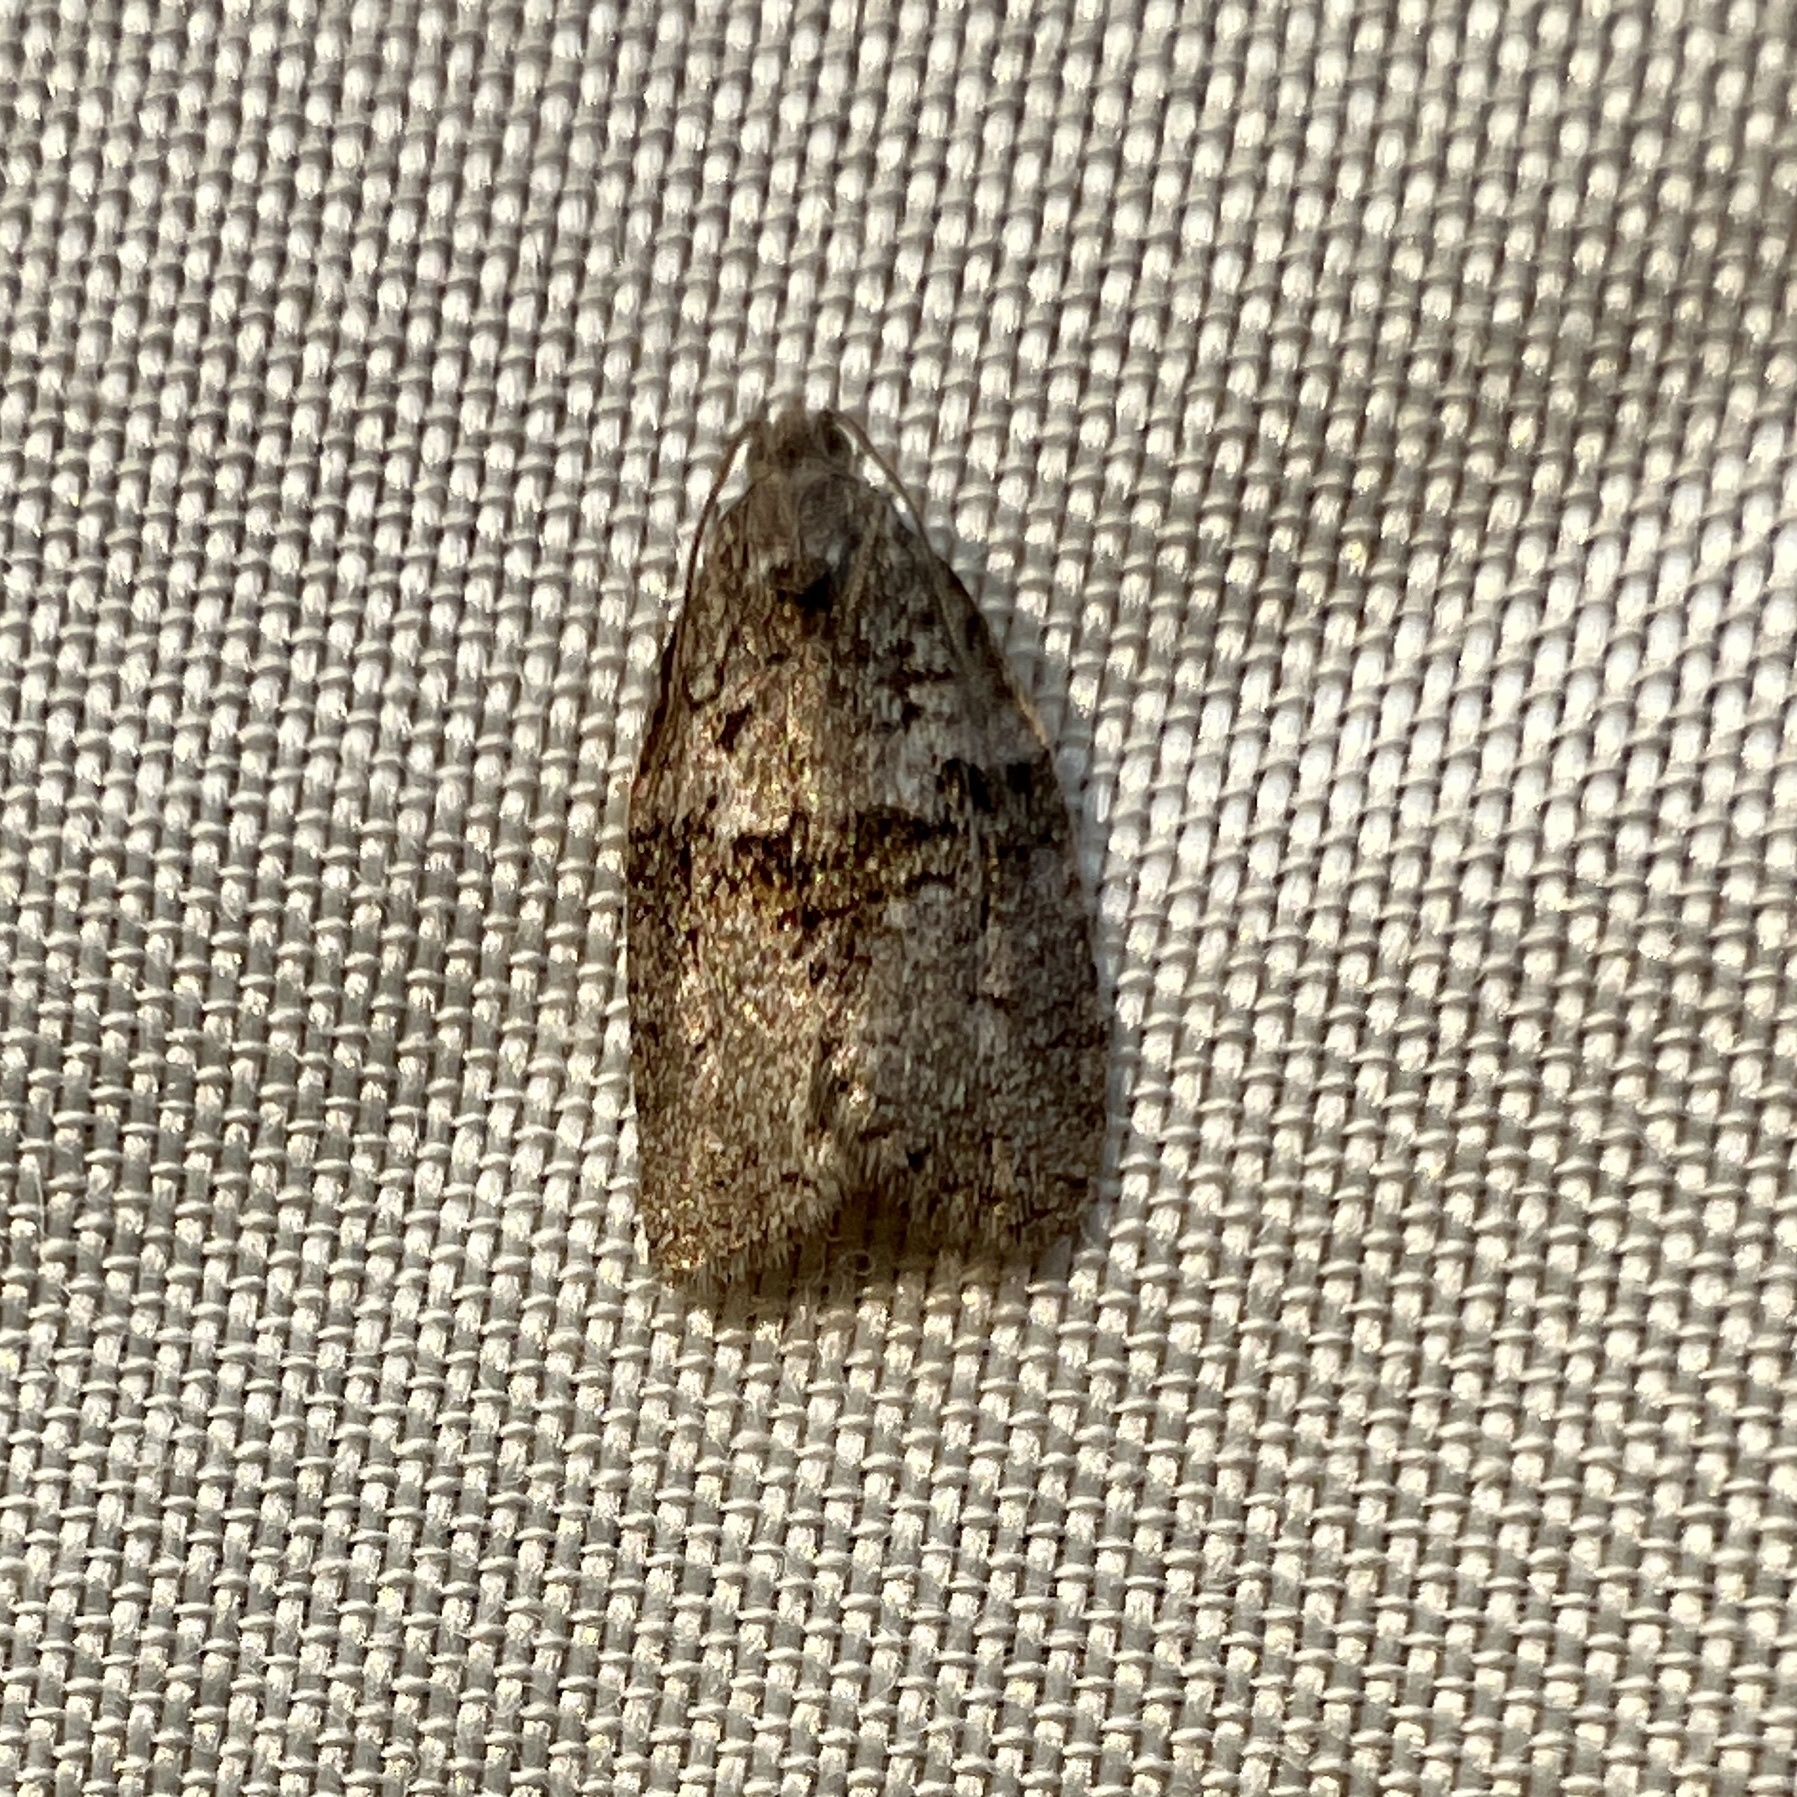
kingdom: Animalia
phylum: Arthropoda
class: Insecta
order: Lepidoptera
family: Tortricidae
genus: Syndemis
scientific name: Syndemis afflictana
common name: Gray leafroller moth
